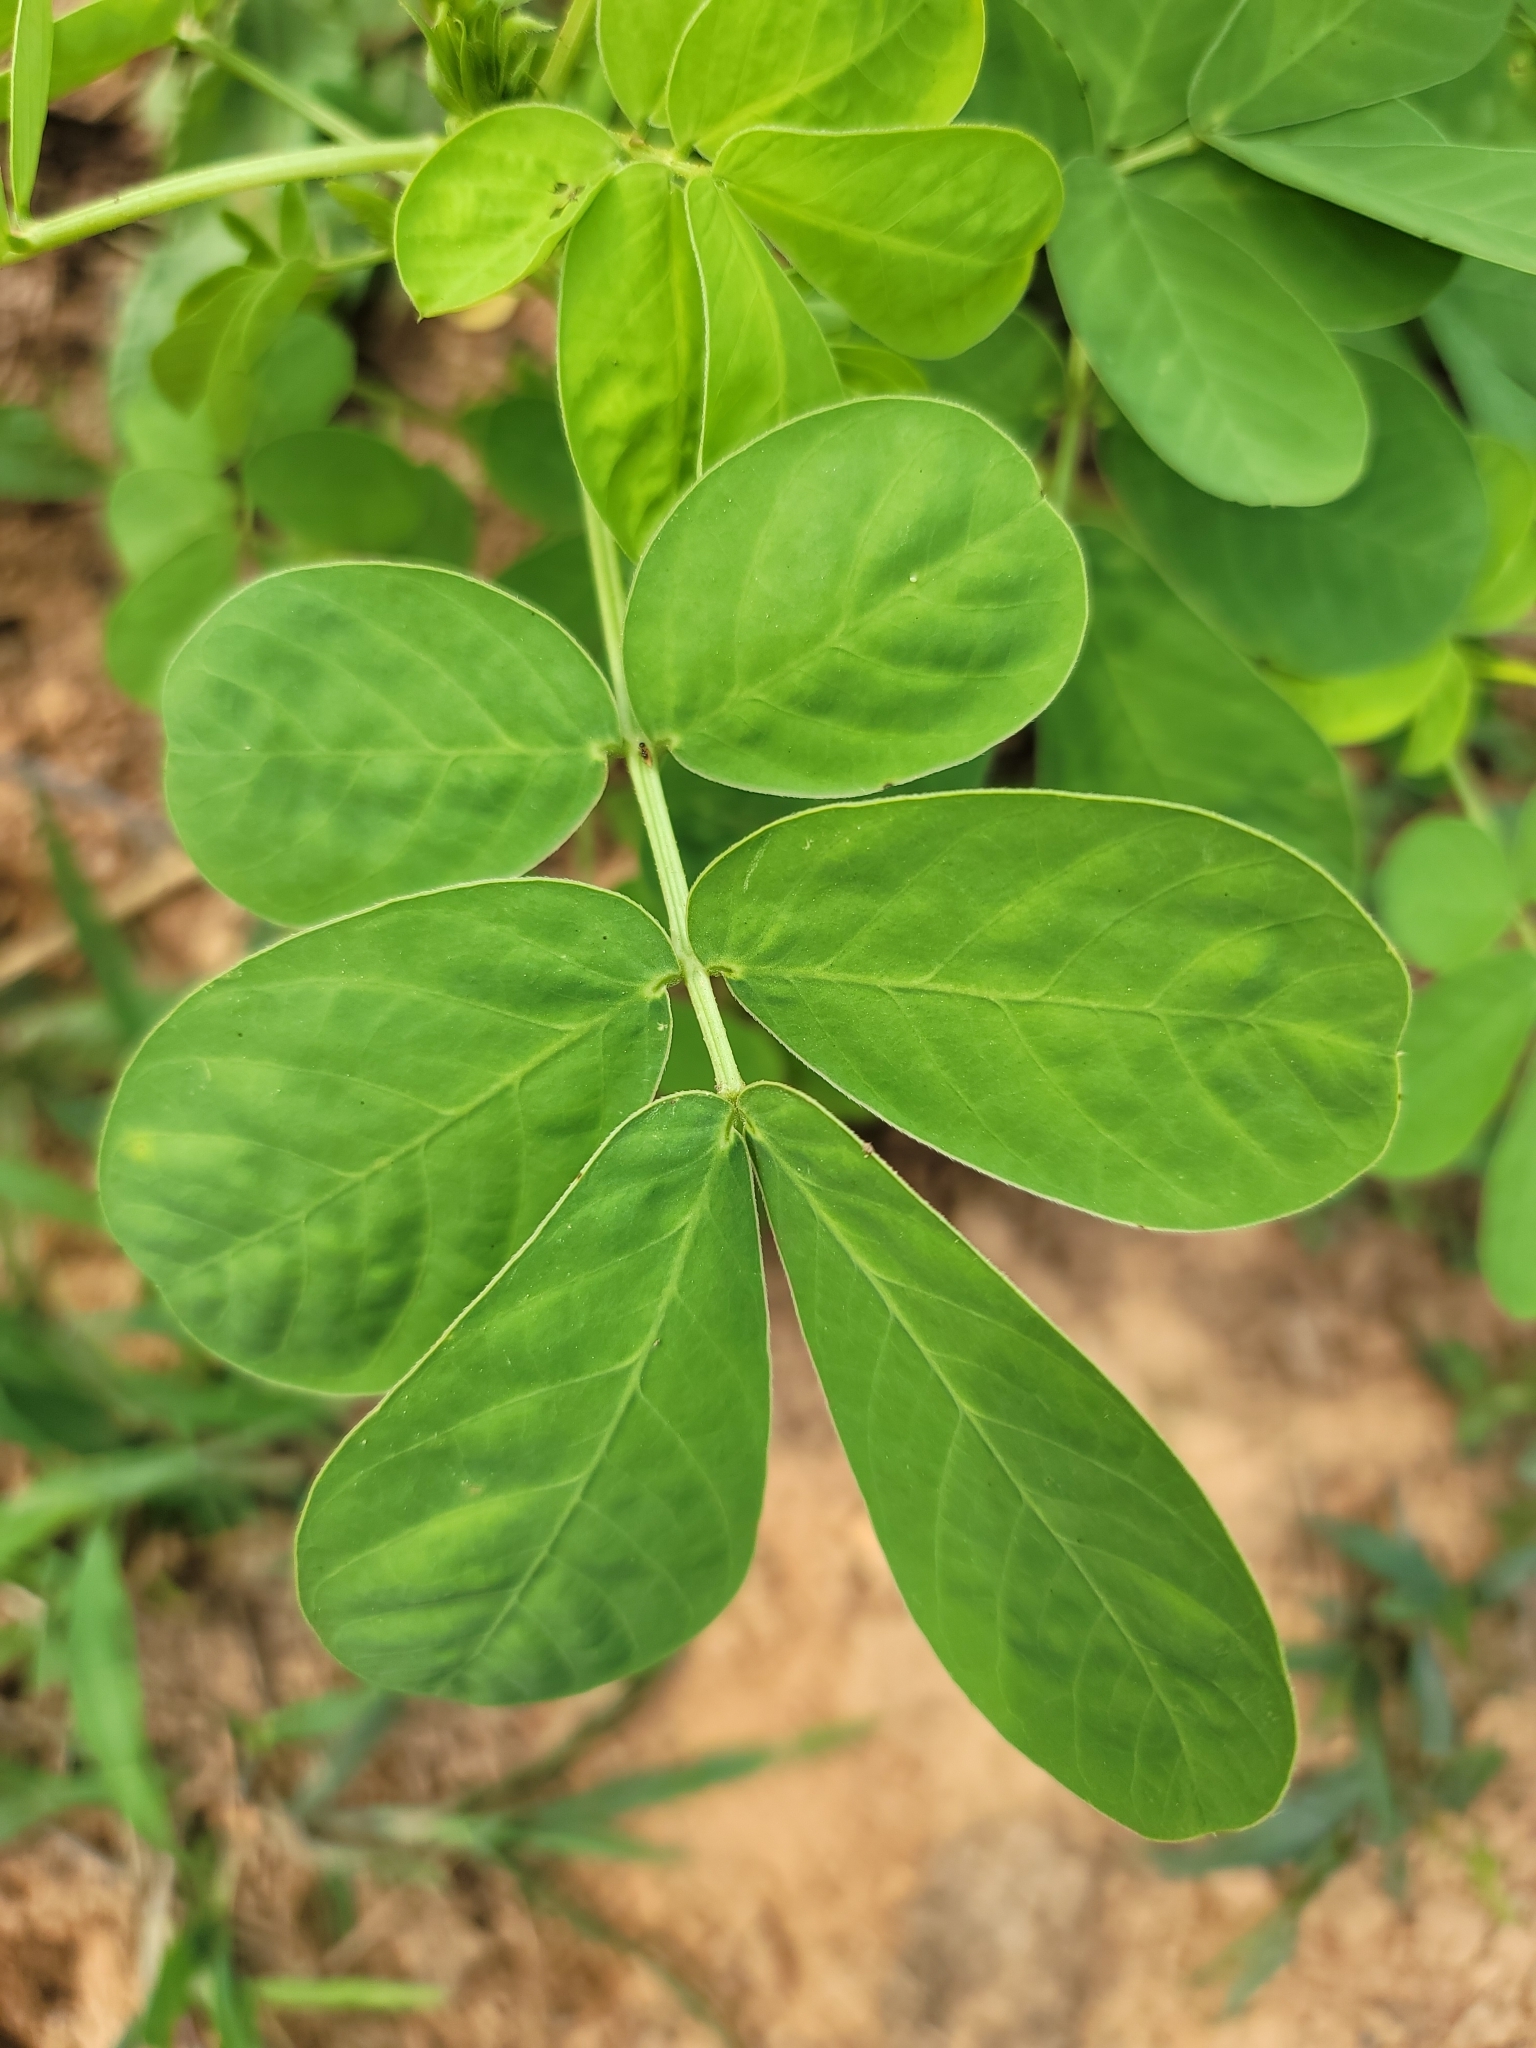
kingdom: Plantae
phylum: Tracheophyta
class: Magnoliopsida
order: Fabales
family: Fabaceae
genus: Senna
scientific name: Senna obtusifolia
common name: Java-bean
